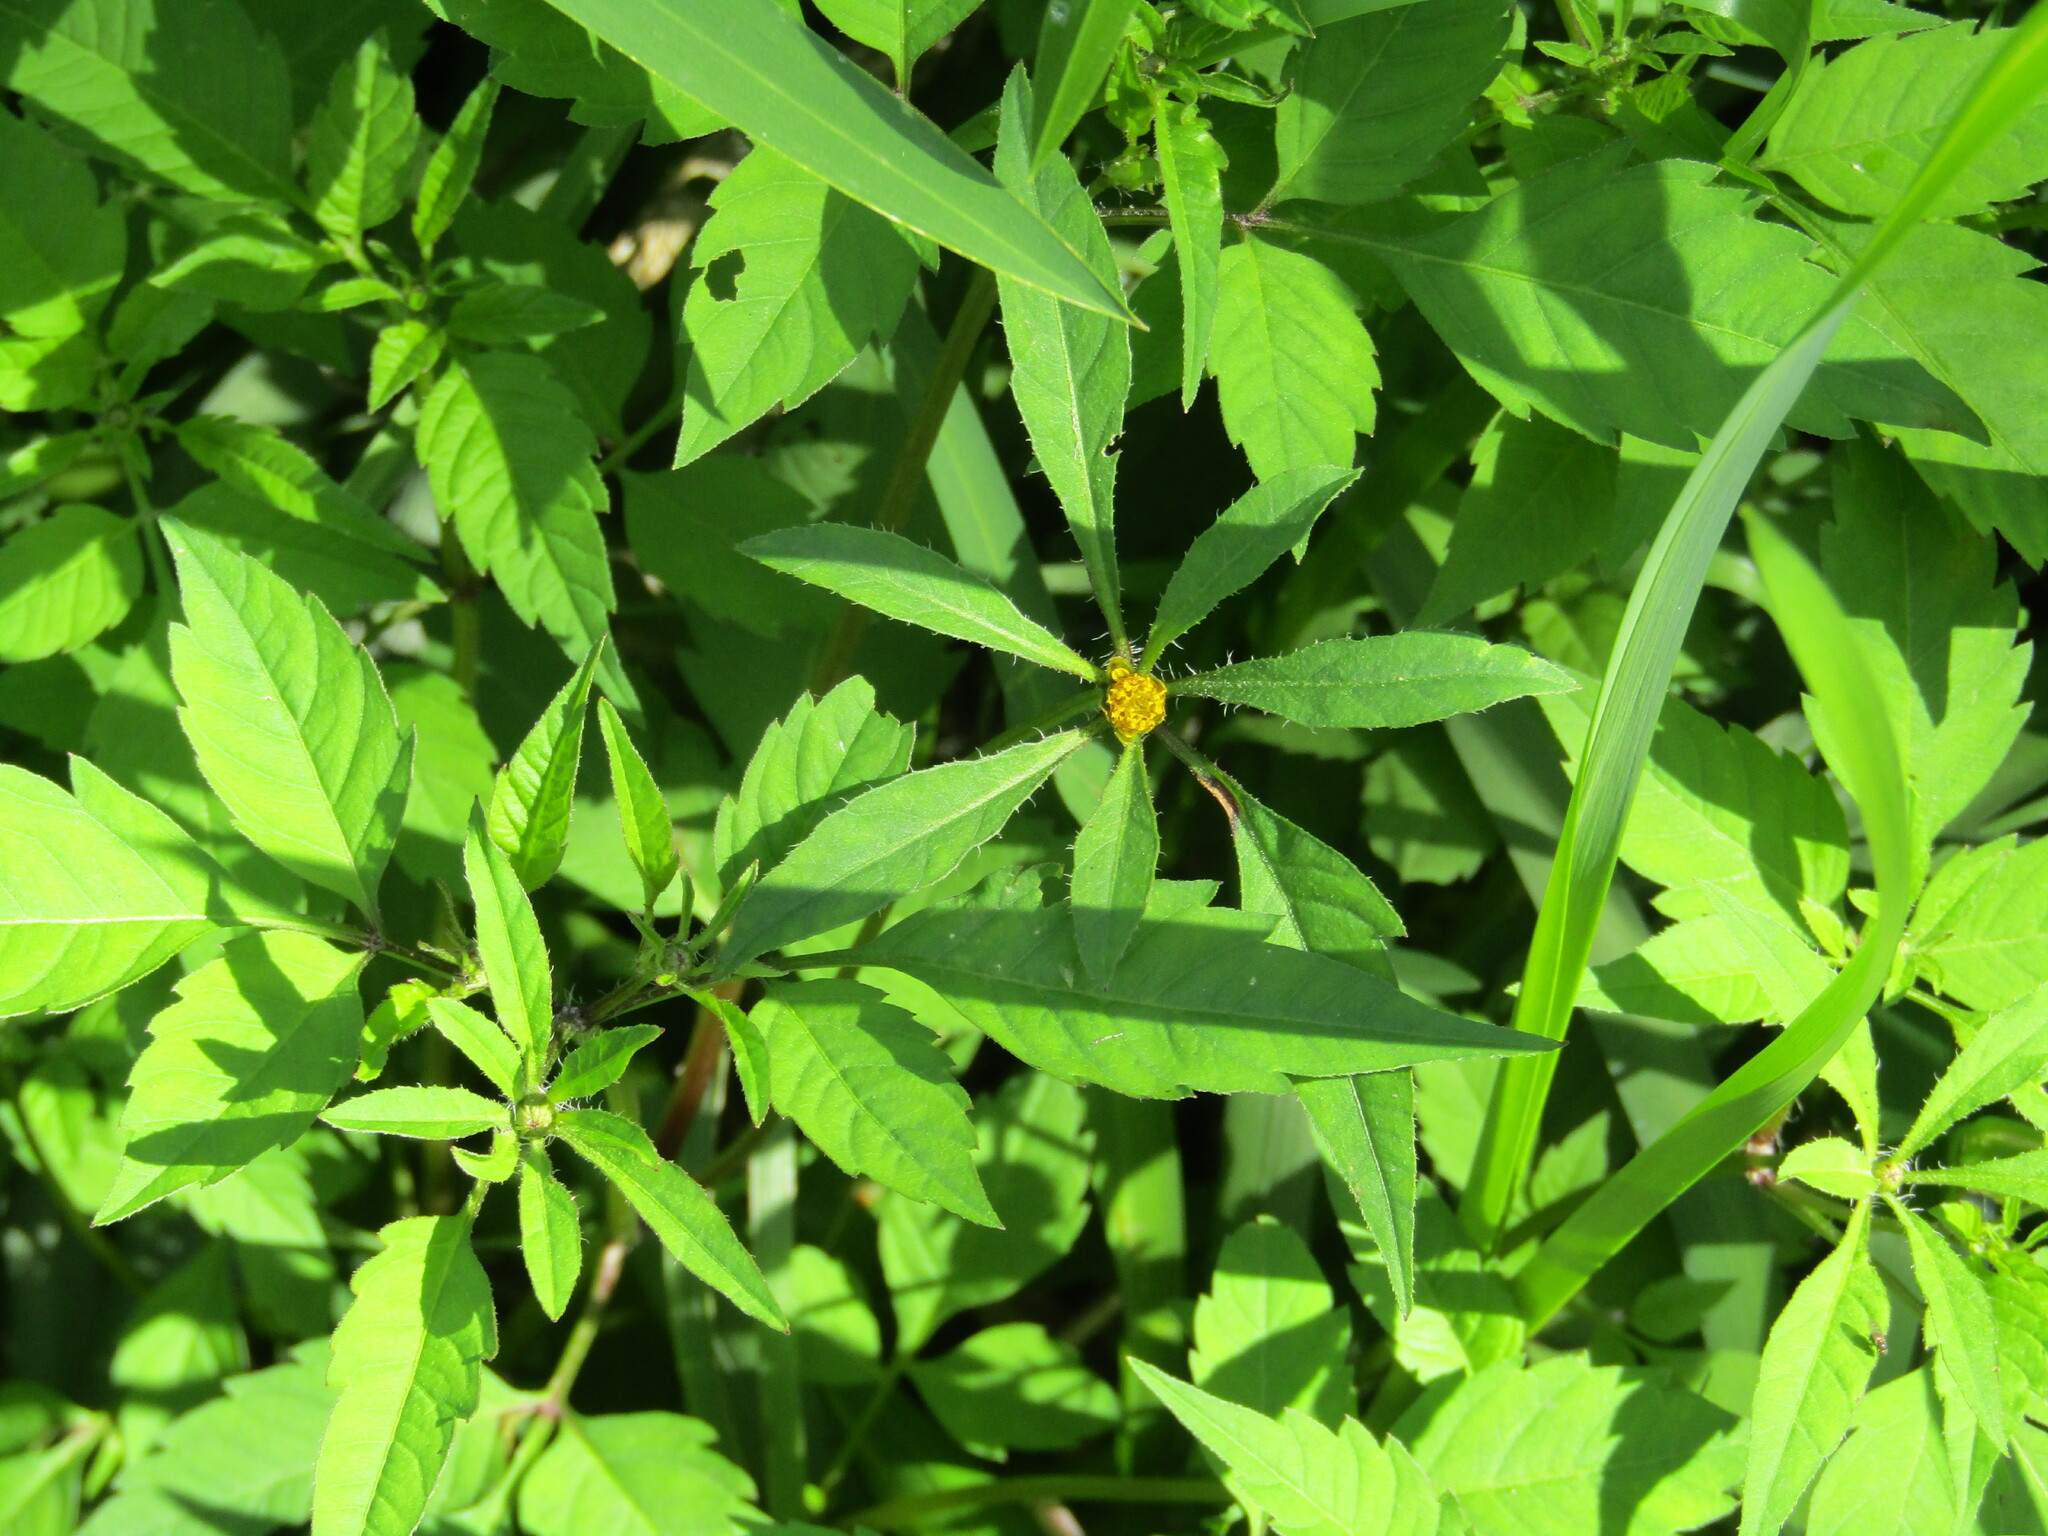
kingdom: Plantae
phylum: Tracheophyta
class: Magnoliopsida
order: Asterales
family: Asteraceae
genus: Bidens
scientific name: Bidens frondosa
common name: Beggarticks
